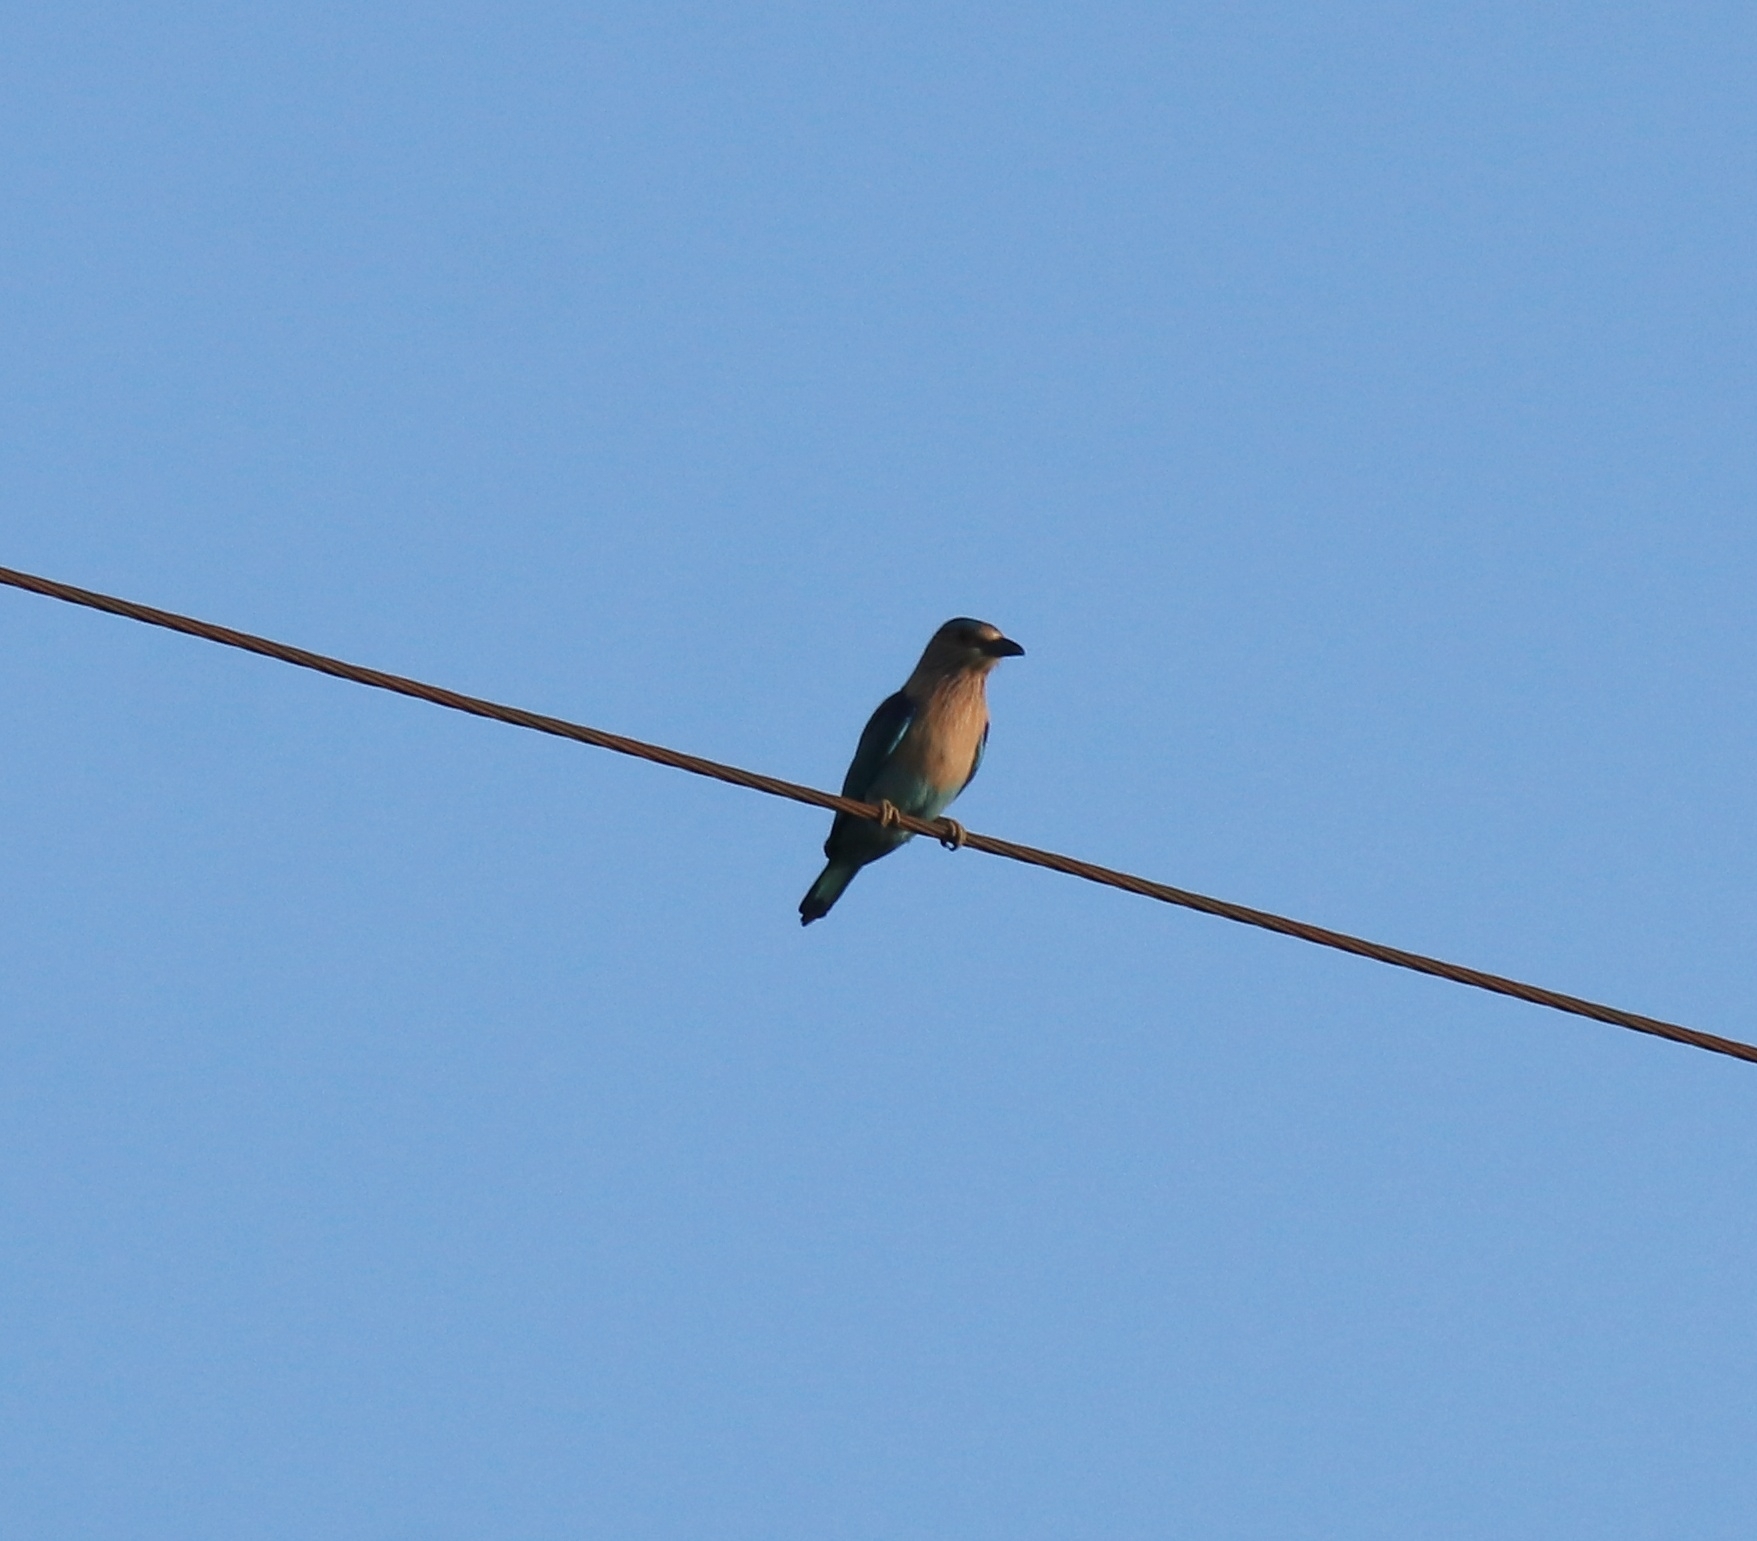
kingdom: Animalia
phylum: Chordata
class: Aves
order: Coraciiformes
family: Coraciidae
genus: Coracias
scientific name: Coracias benghalensis
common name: Indian roller
